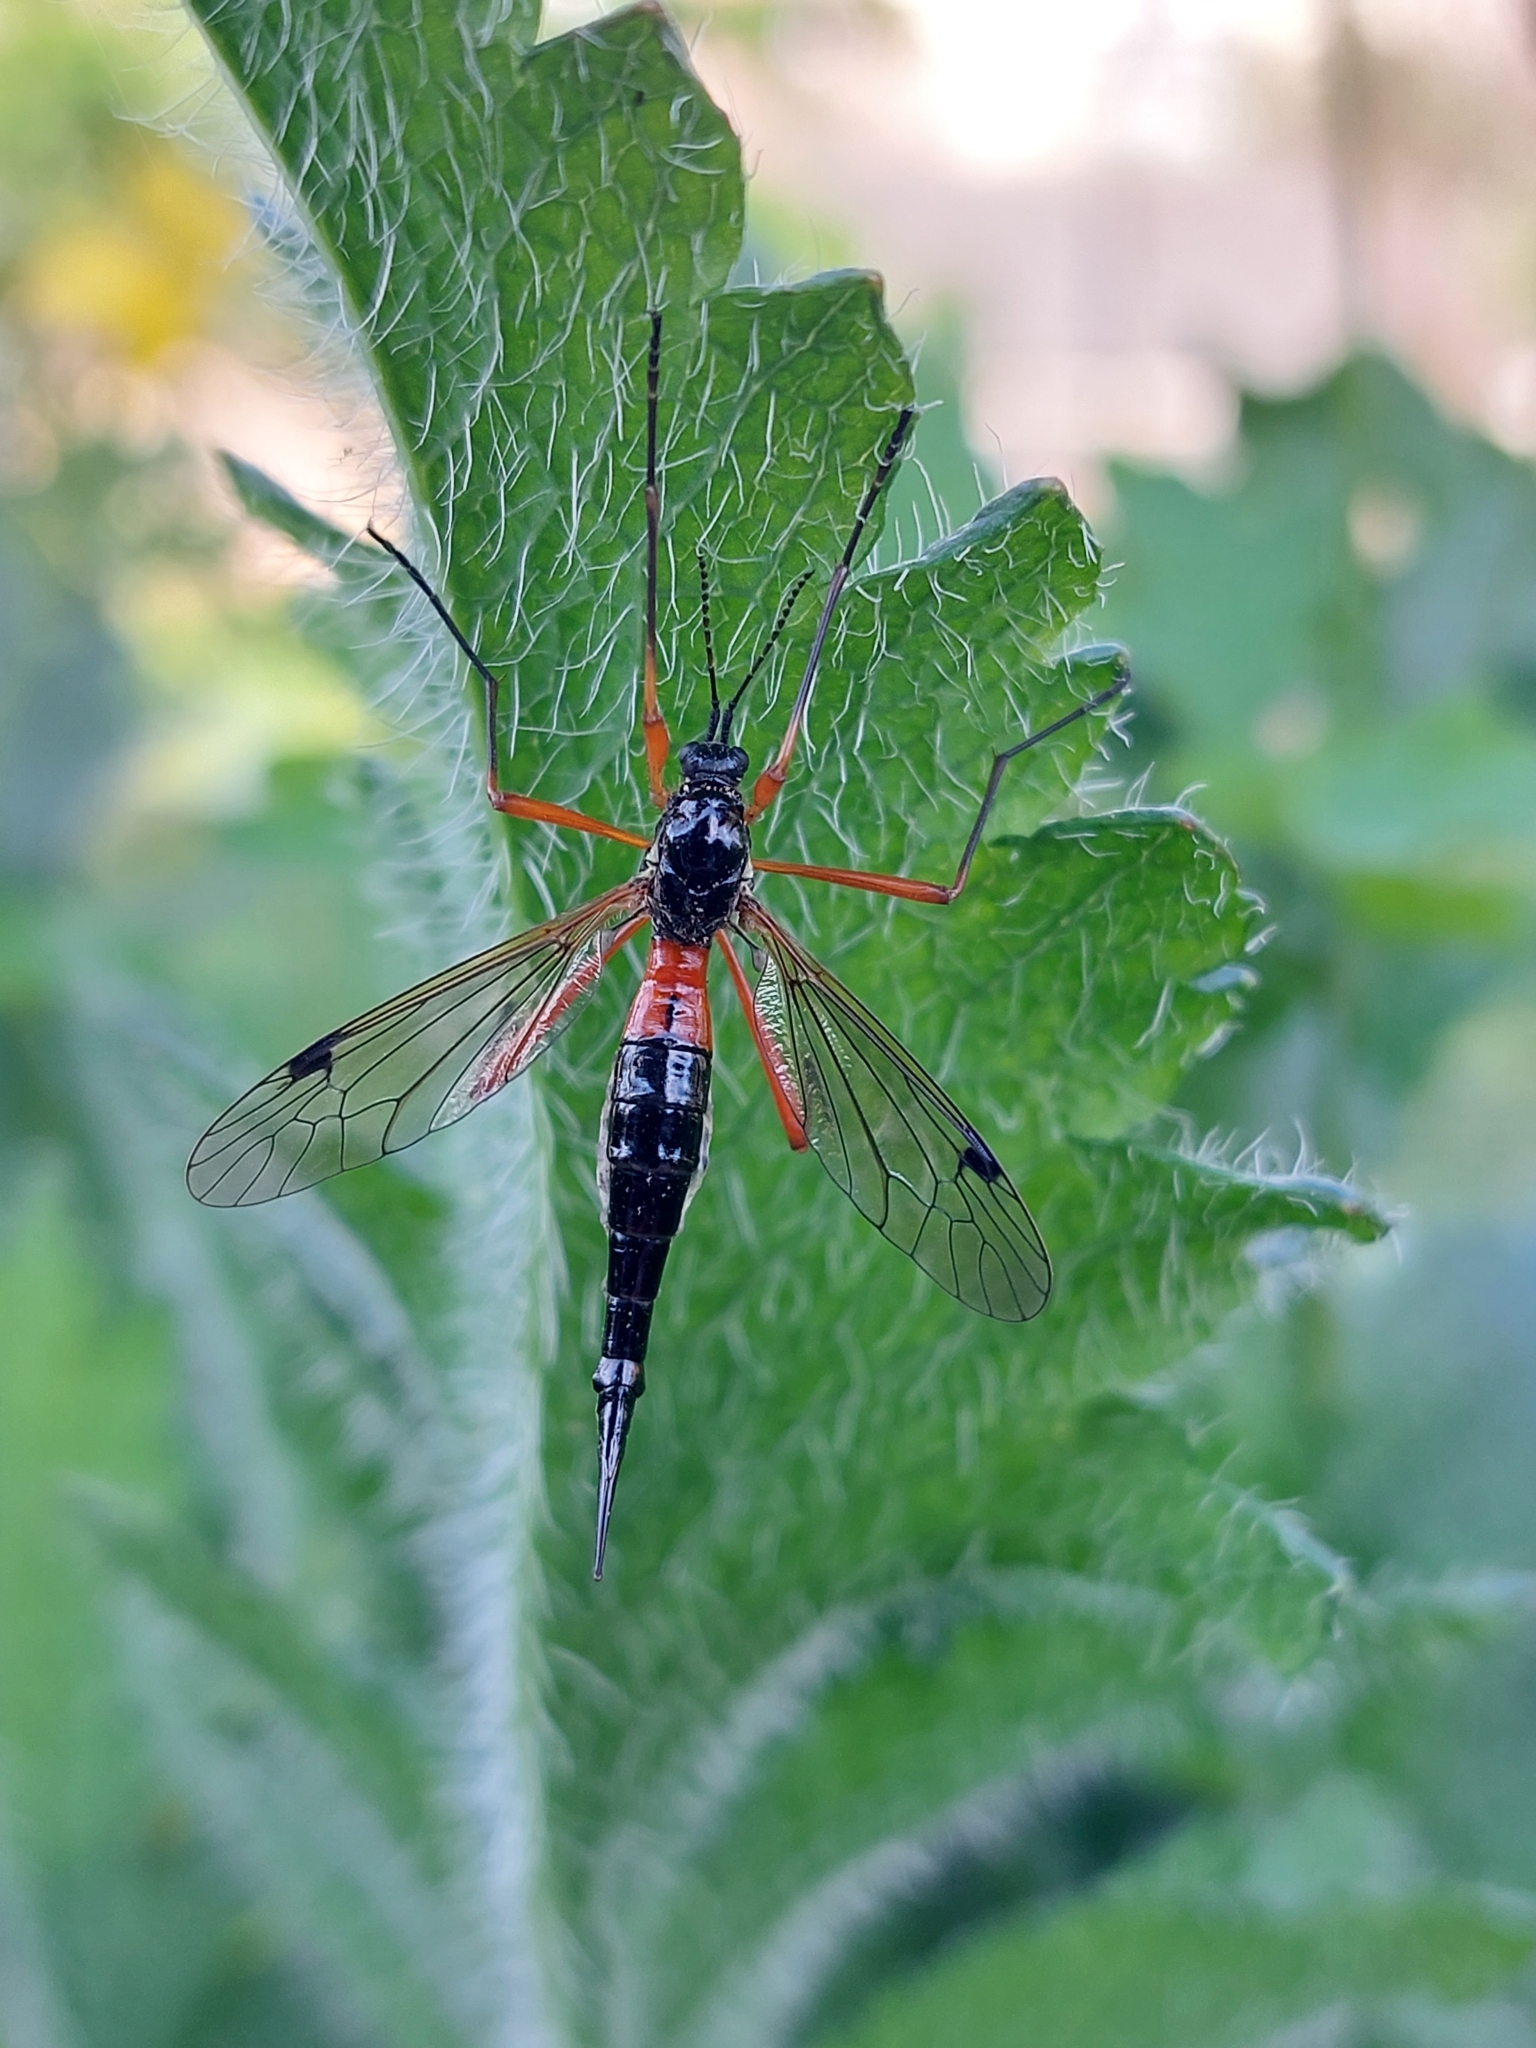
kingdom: Animalia
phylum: Arthropoda
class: Insecta
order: Diptera
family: Tipulidae
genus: Tanyptera
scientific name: Tanyptera atrata
